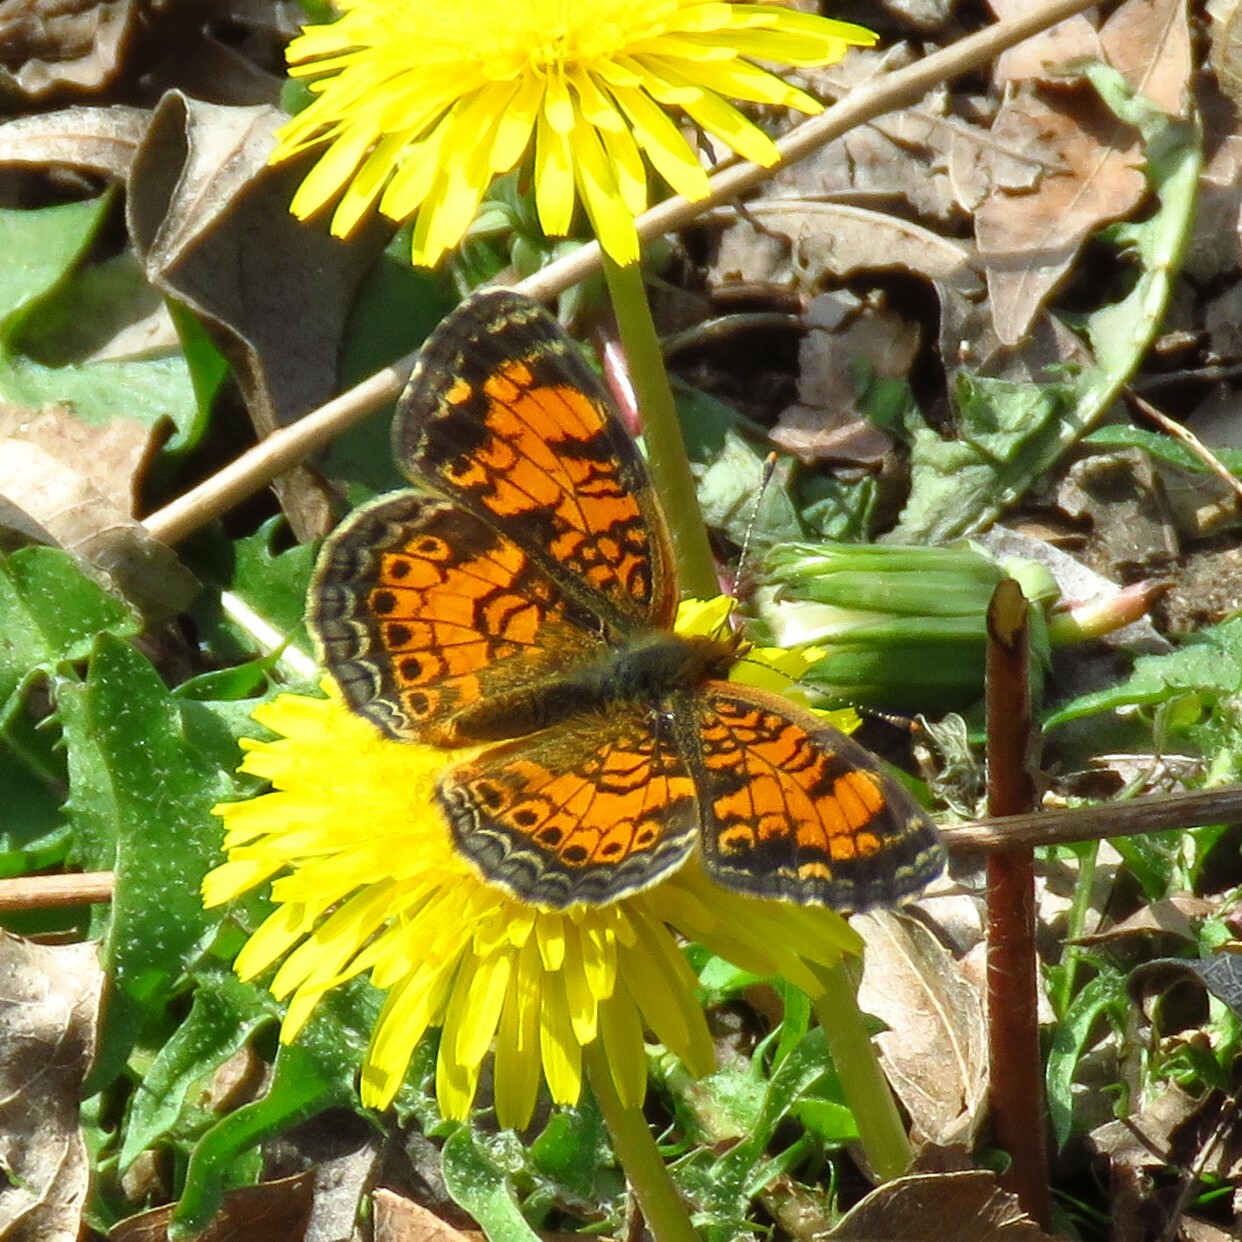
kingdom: Animalia
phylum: Arthropoda
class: Insecta
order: Lepidoptera
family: Nymphalidae
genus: Phyciodes
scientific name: Phyciodes tharos
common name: Pearl crescent
